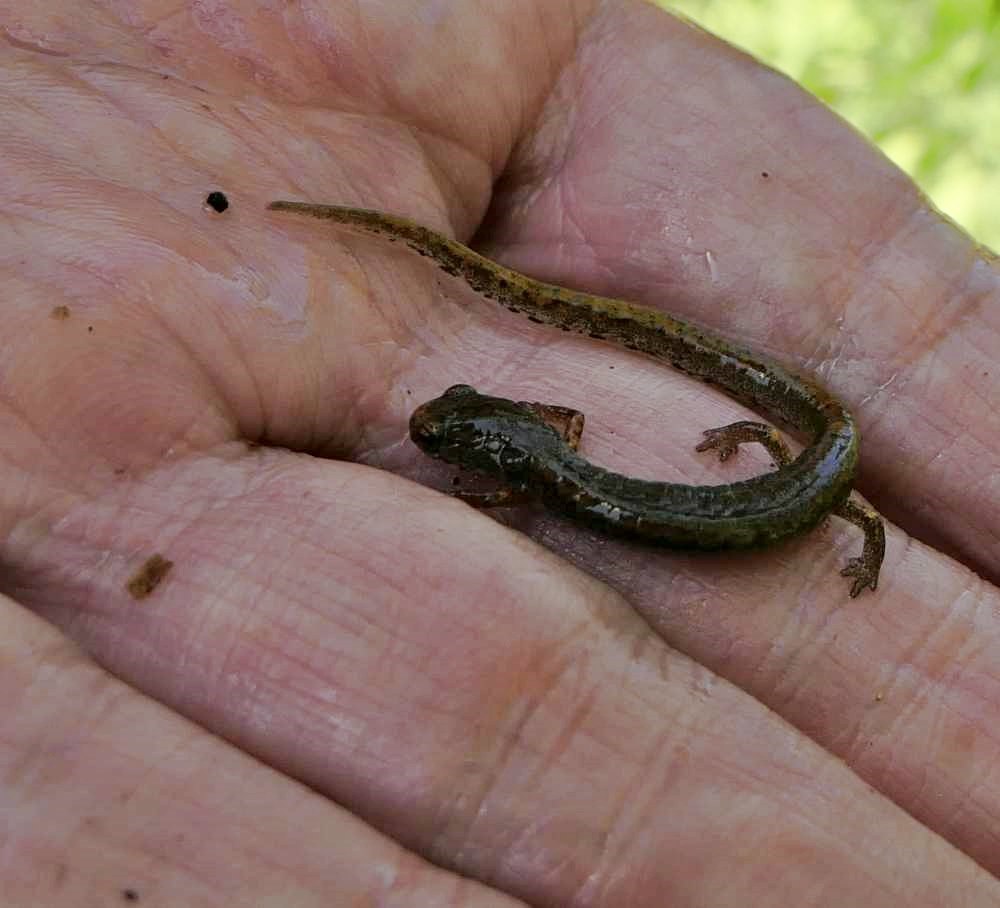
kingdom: Animalia
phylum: Chordata
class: Amphibia
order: Caudata
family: Plethodontidae
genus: Hemidactylium
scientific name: Hemidactylium scutatum
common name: Four-toed salamander
